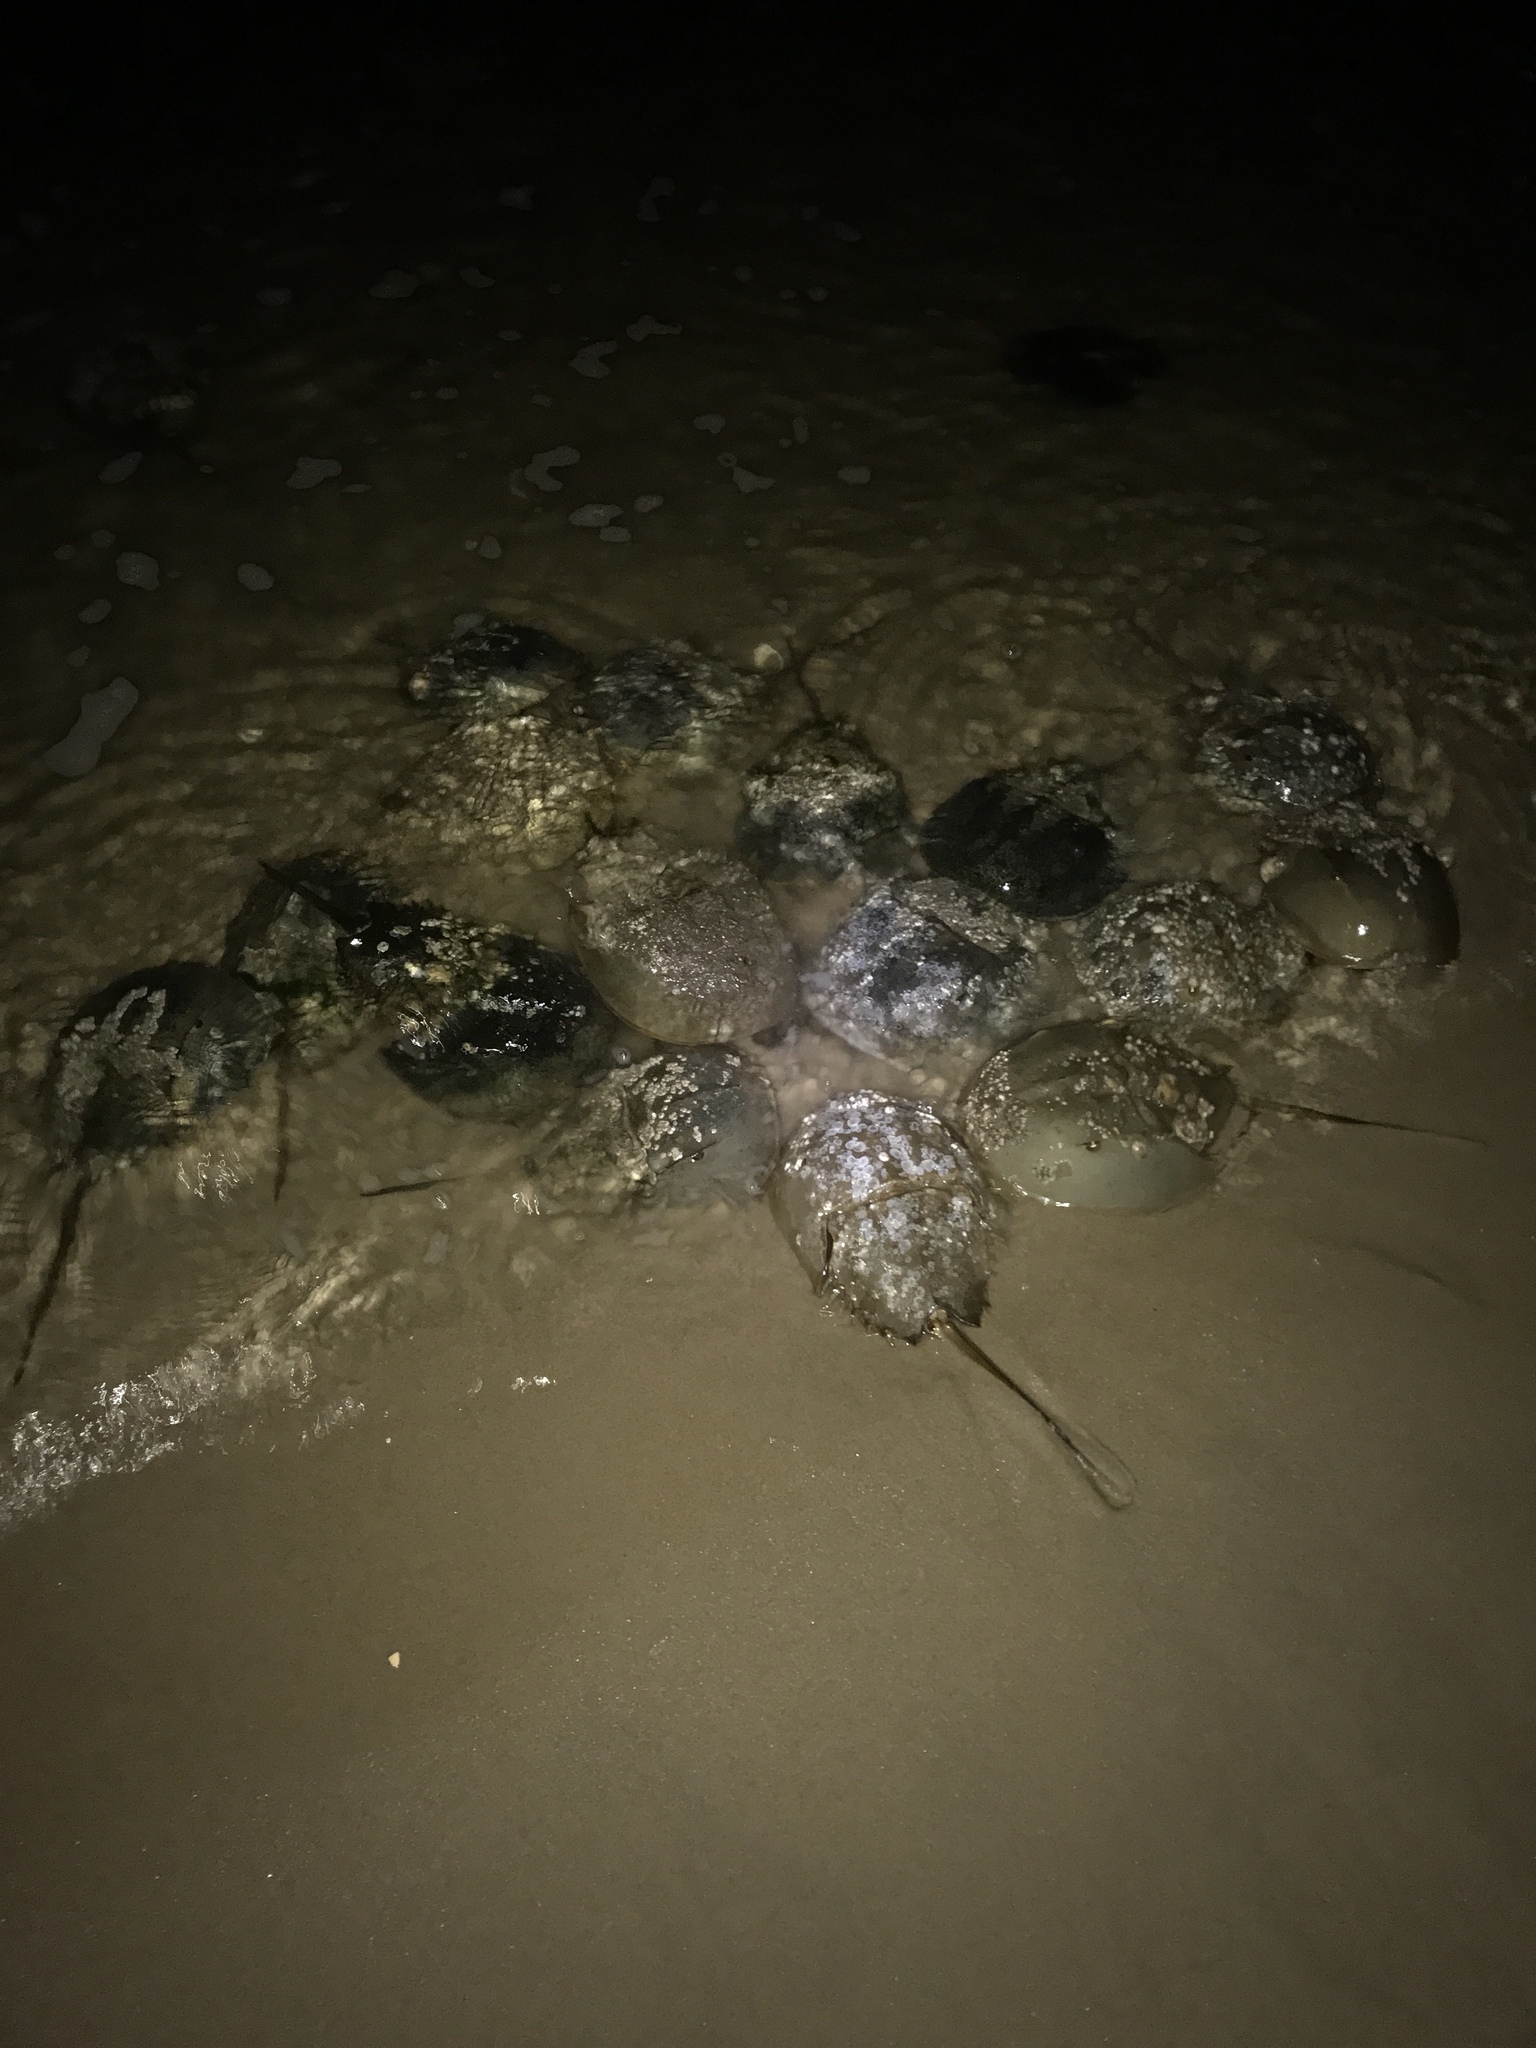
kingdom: Animalia
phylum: Arthropoda
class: Merostomata
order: Xiphosurida
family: Limulidae
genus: Limulus
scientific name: Limulus polyphemus
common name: Horseshoe crab
